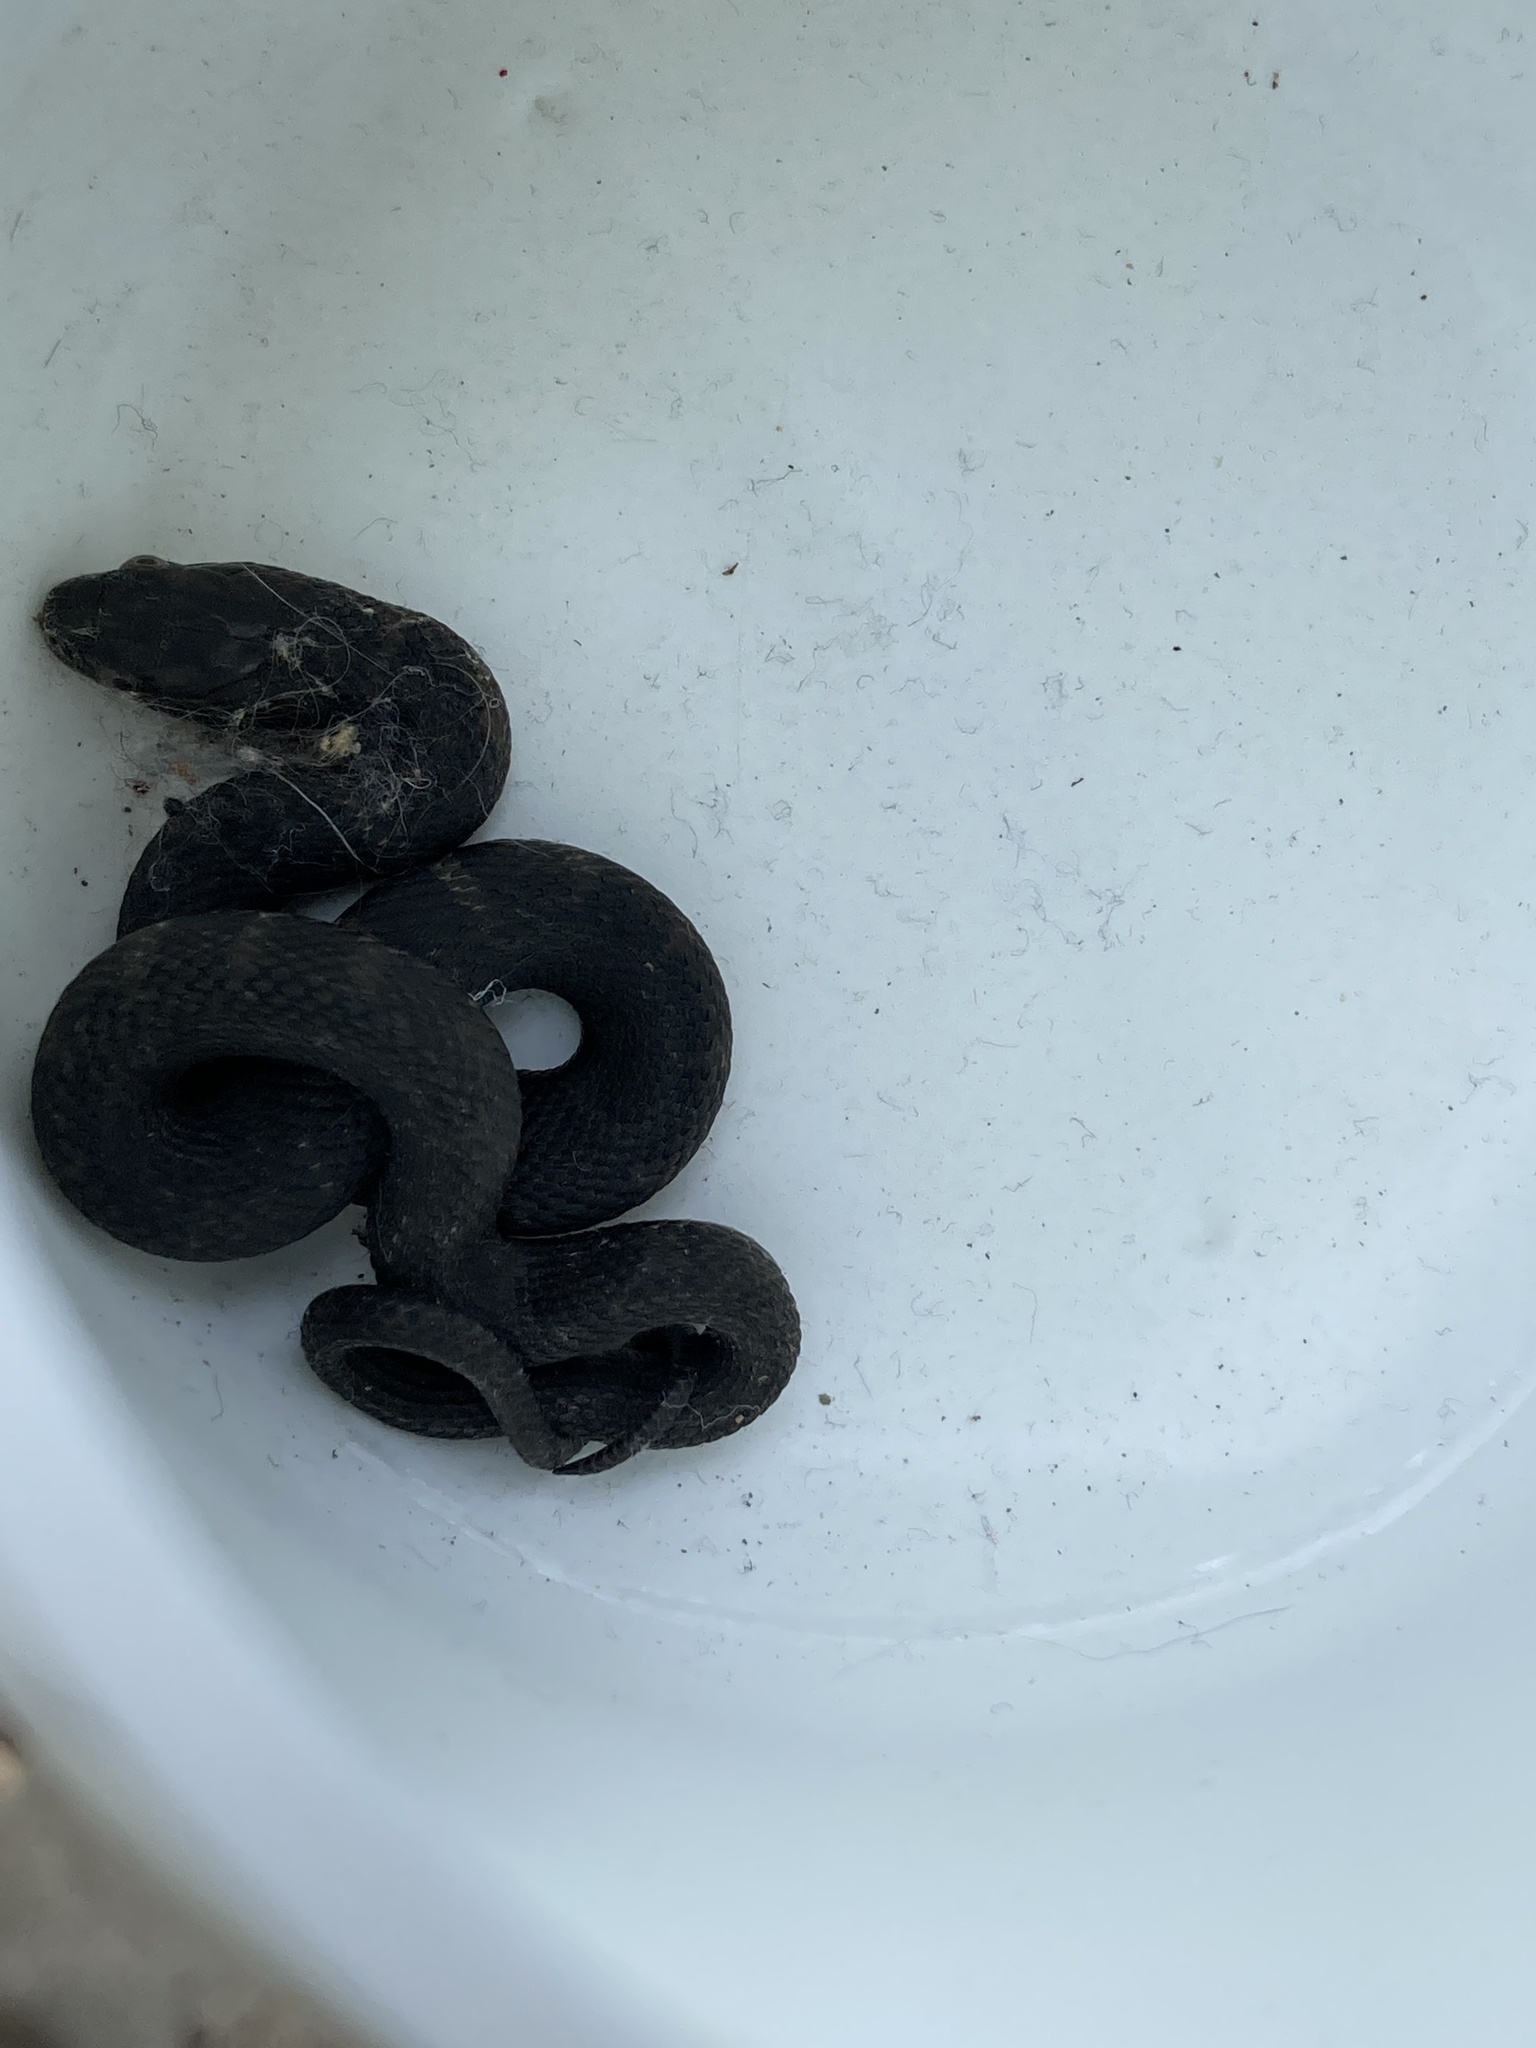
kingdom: Animalia
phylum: Chordata
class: Squamata
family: Colubridae
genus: Nerodia
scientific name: Nerodia sipedon
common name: Northern water snake
